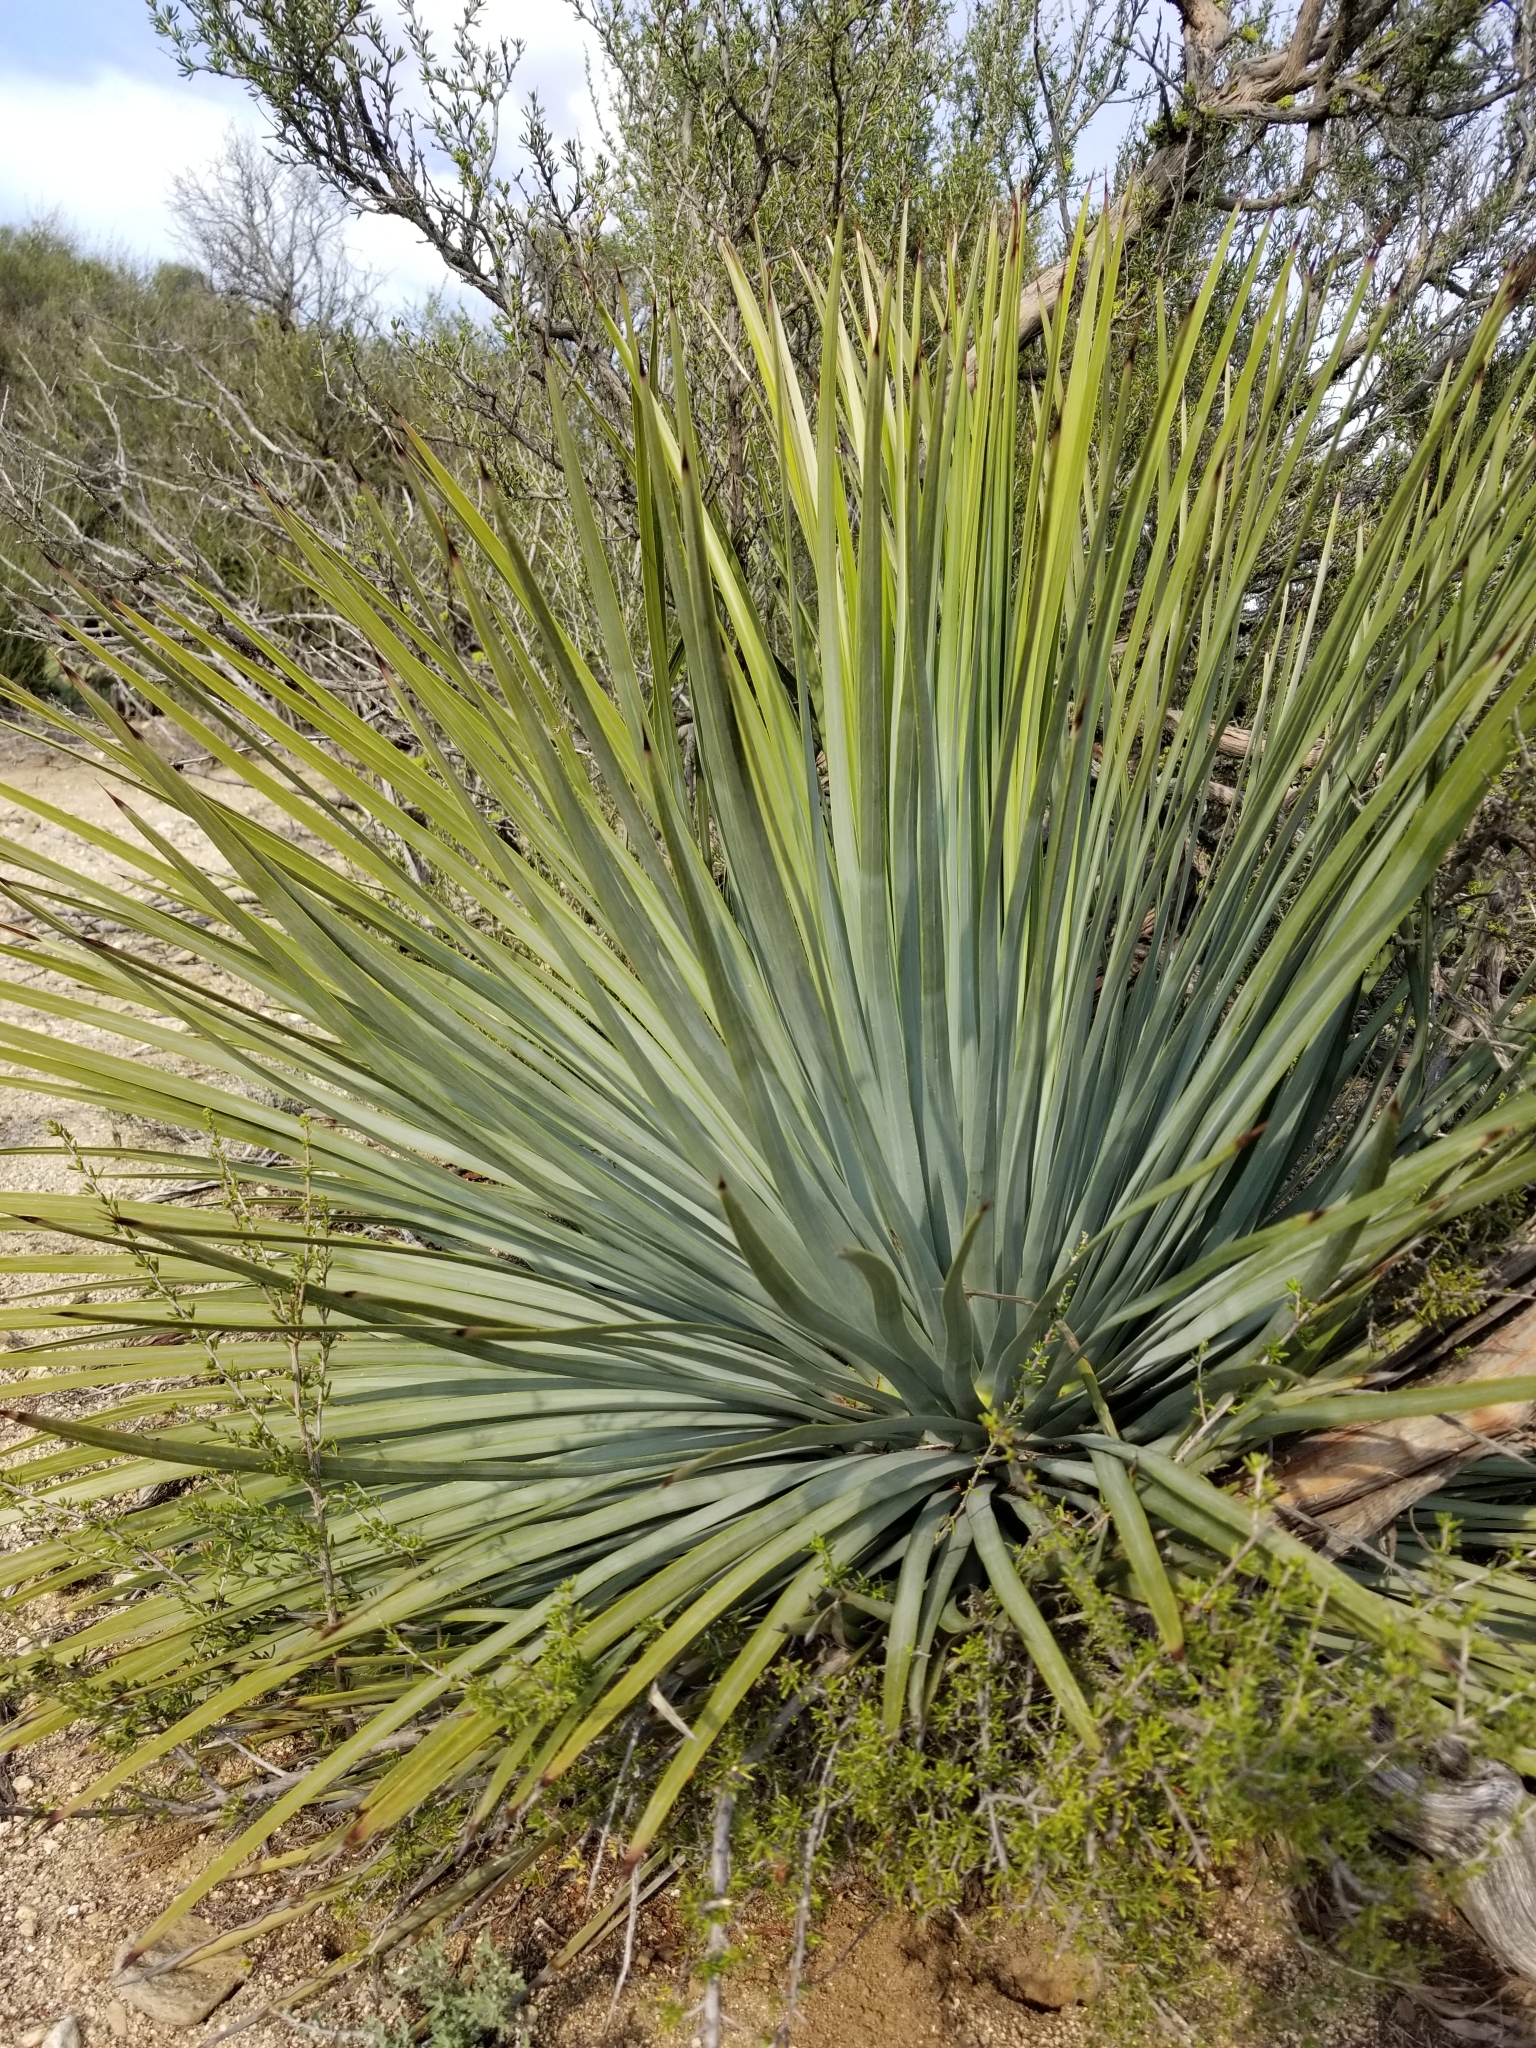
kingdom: Plantae
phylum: Tracheophyta
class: Liliopsida
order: Asparagales
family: Asparagaceae
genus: Hesperoyucca
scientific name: Hesperoyucca whipplei
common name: Our lord's-candle
